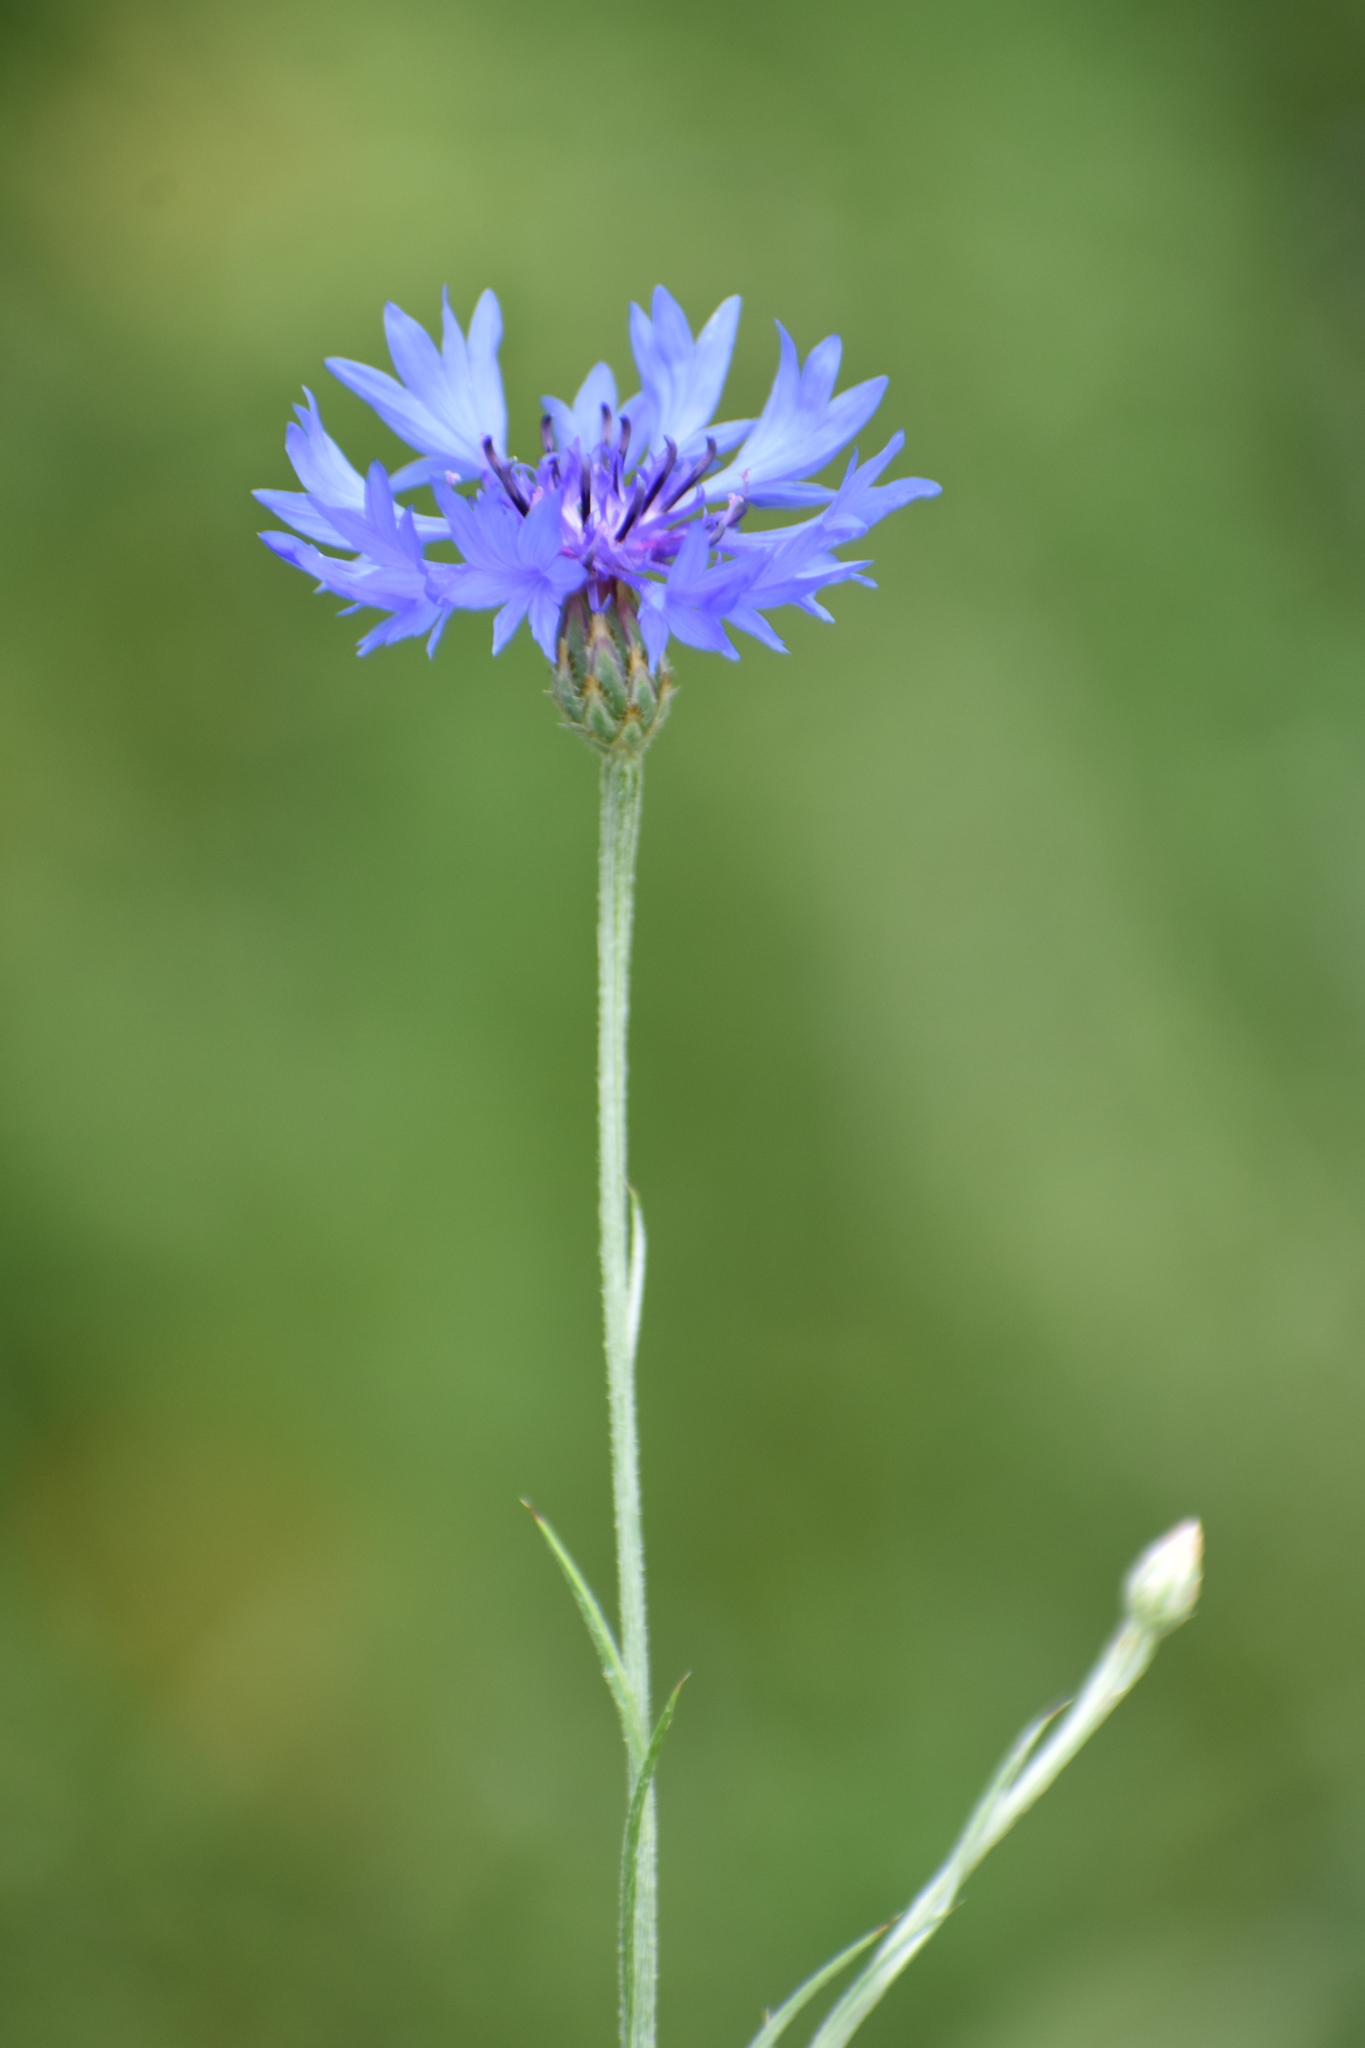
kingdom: Plantae
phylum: Tracheophyta
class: Magnoliopsida
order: Asterales
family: Asteraceae
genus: Centaurea
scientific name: Centaurea cyanus
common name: Cornflower
